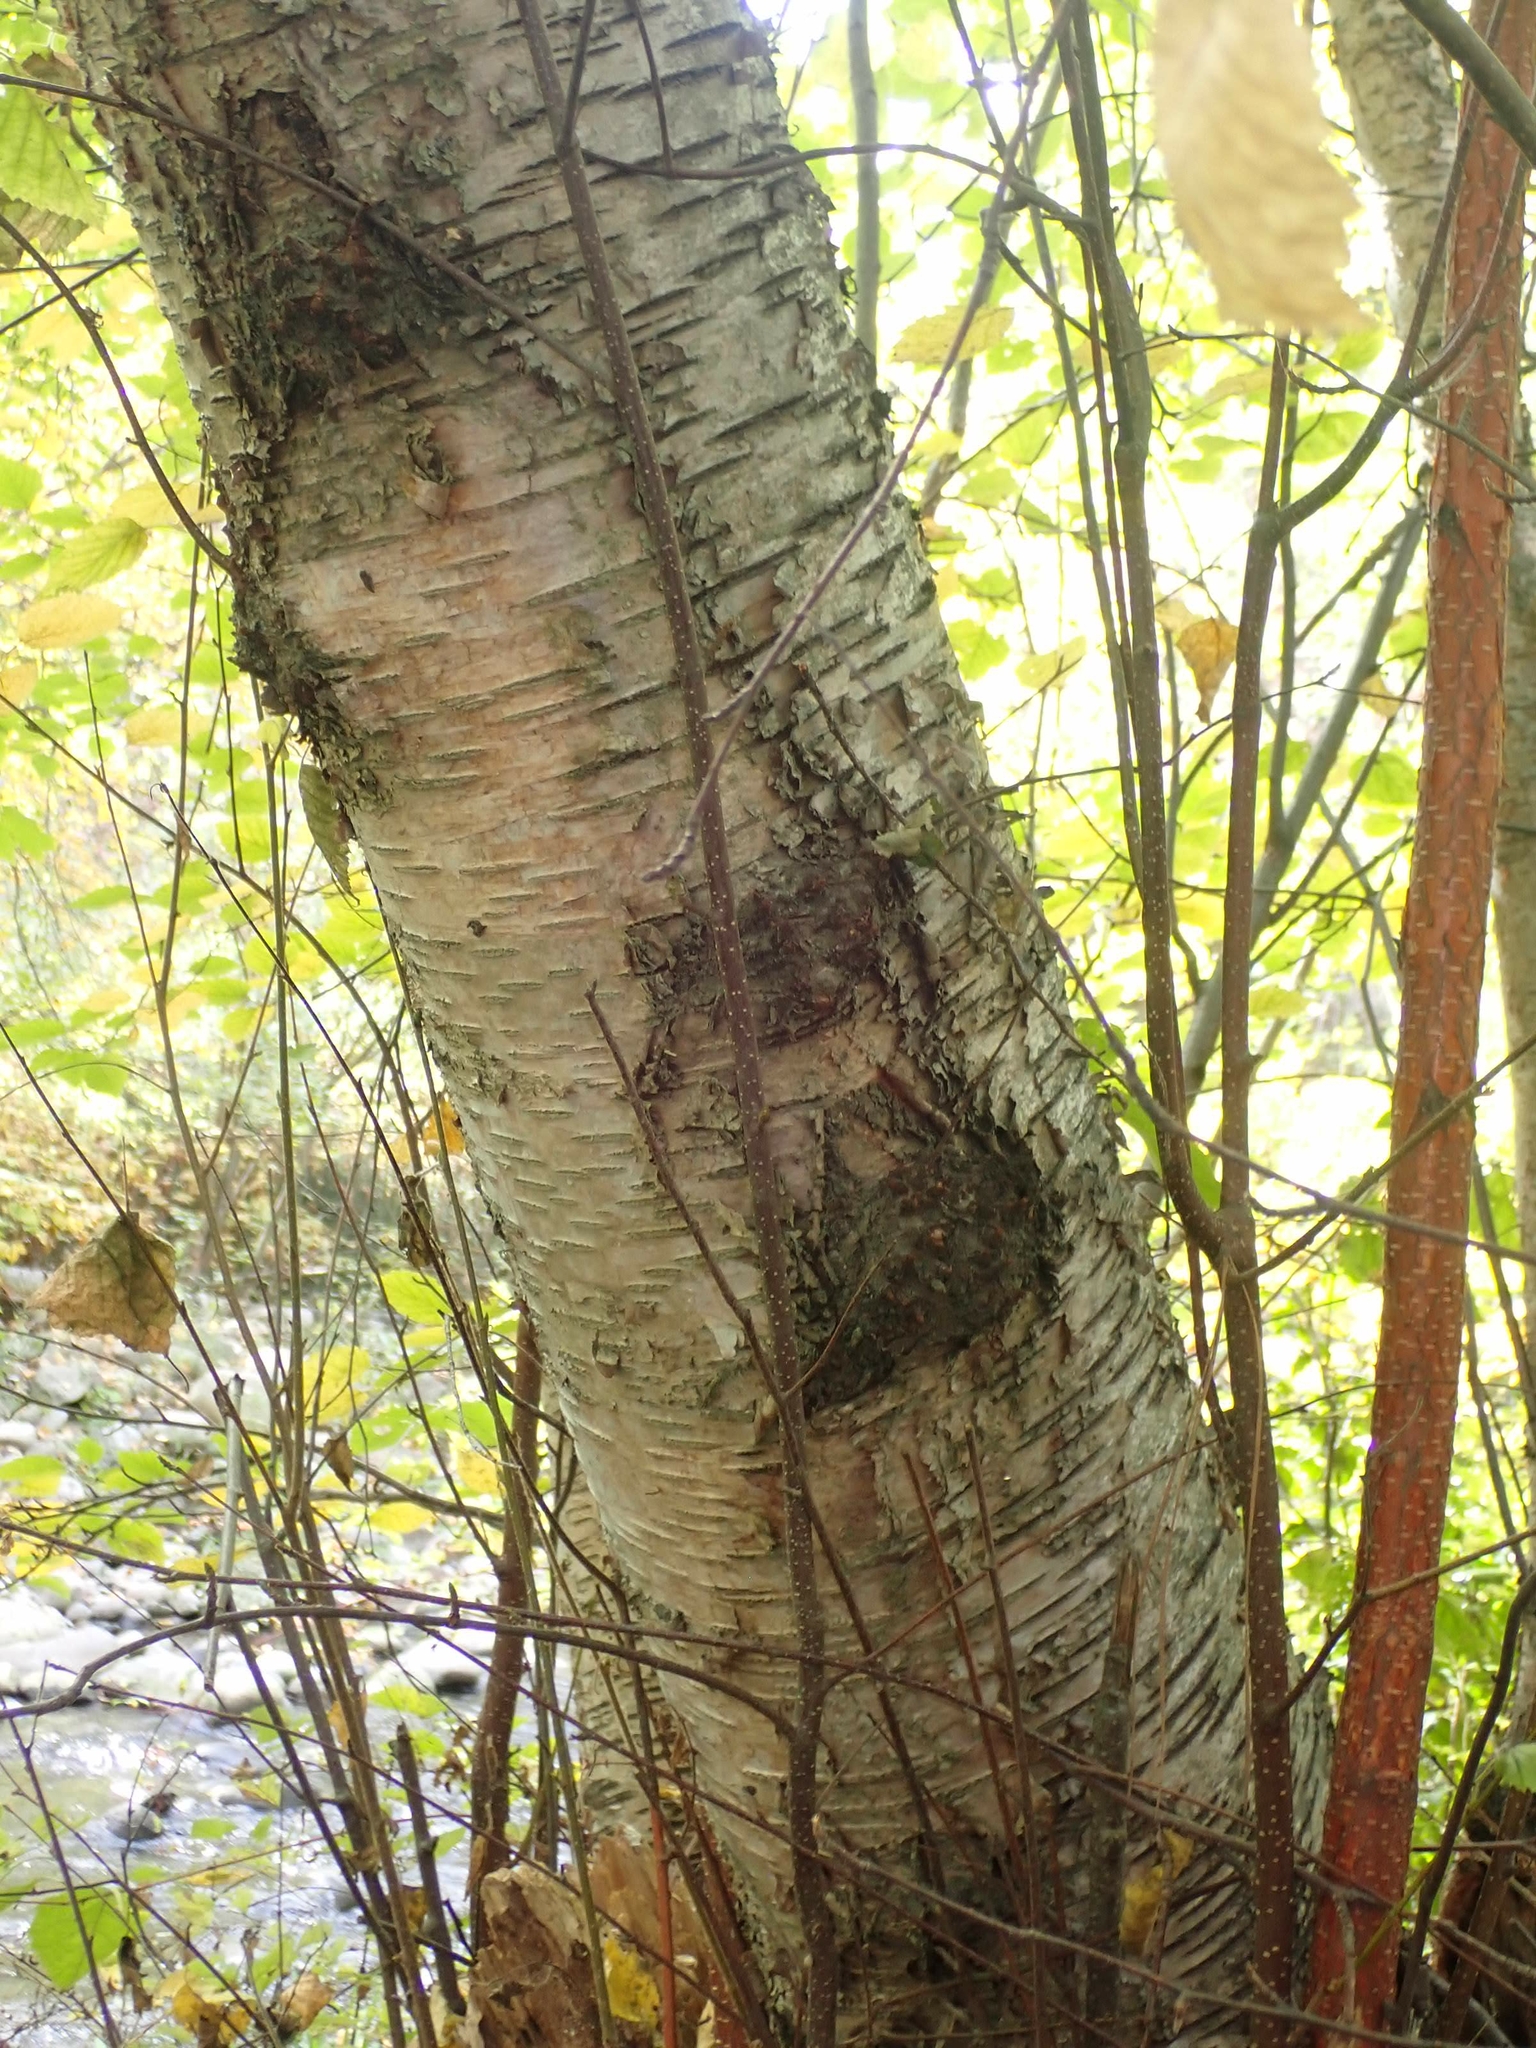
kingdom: Plantae
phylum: Tracheophyta
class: Magnoliopsida
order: Fagales
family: Betulaceae
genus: Betula
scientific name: Betula papyrifera
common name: Paper birch
